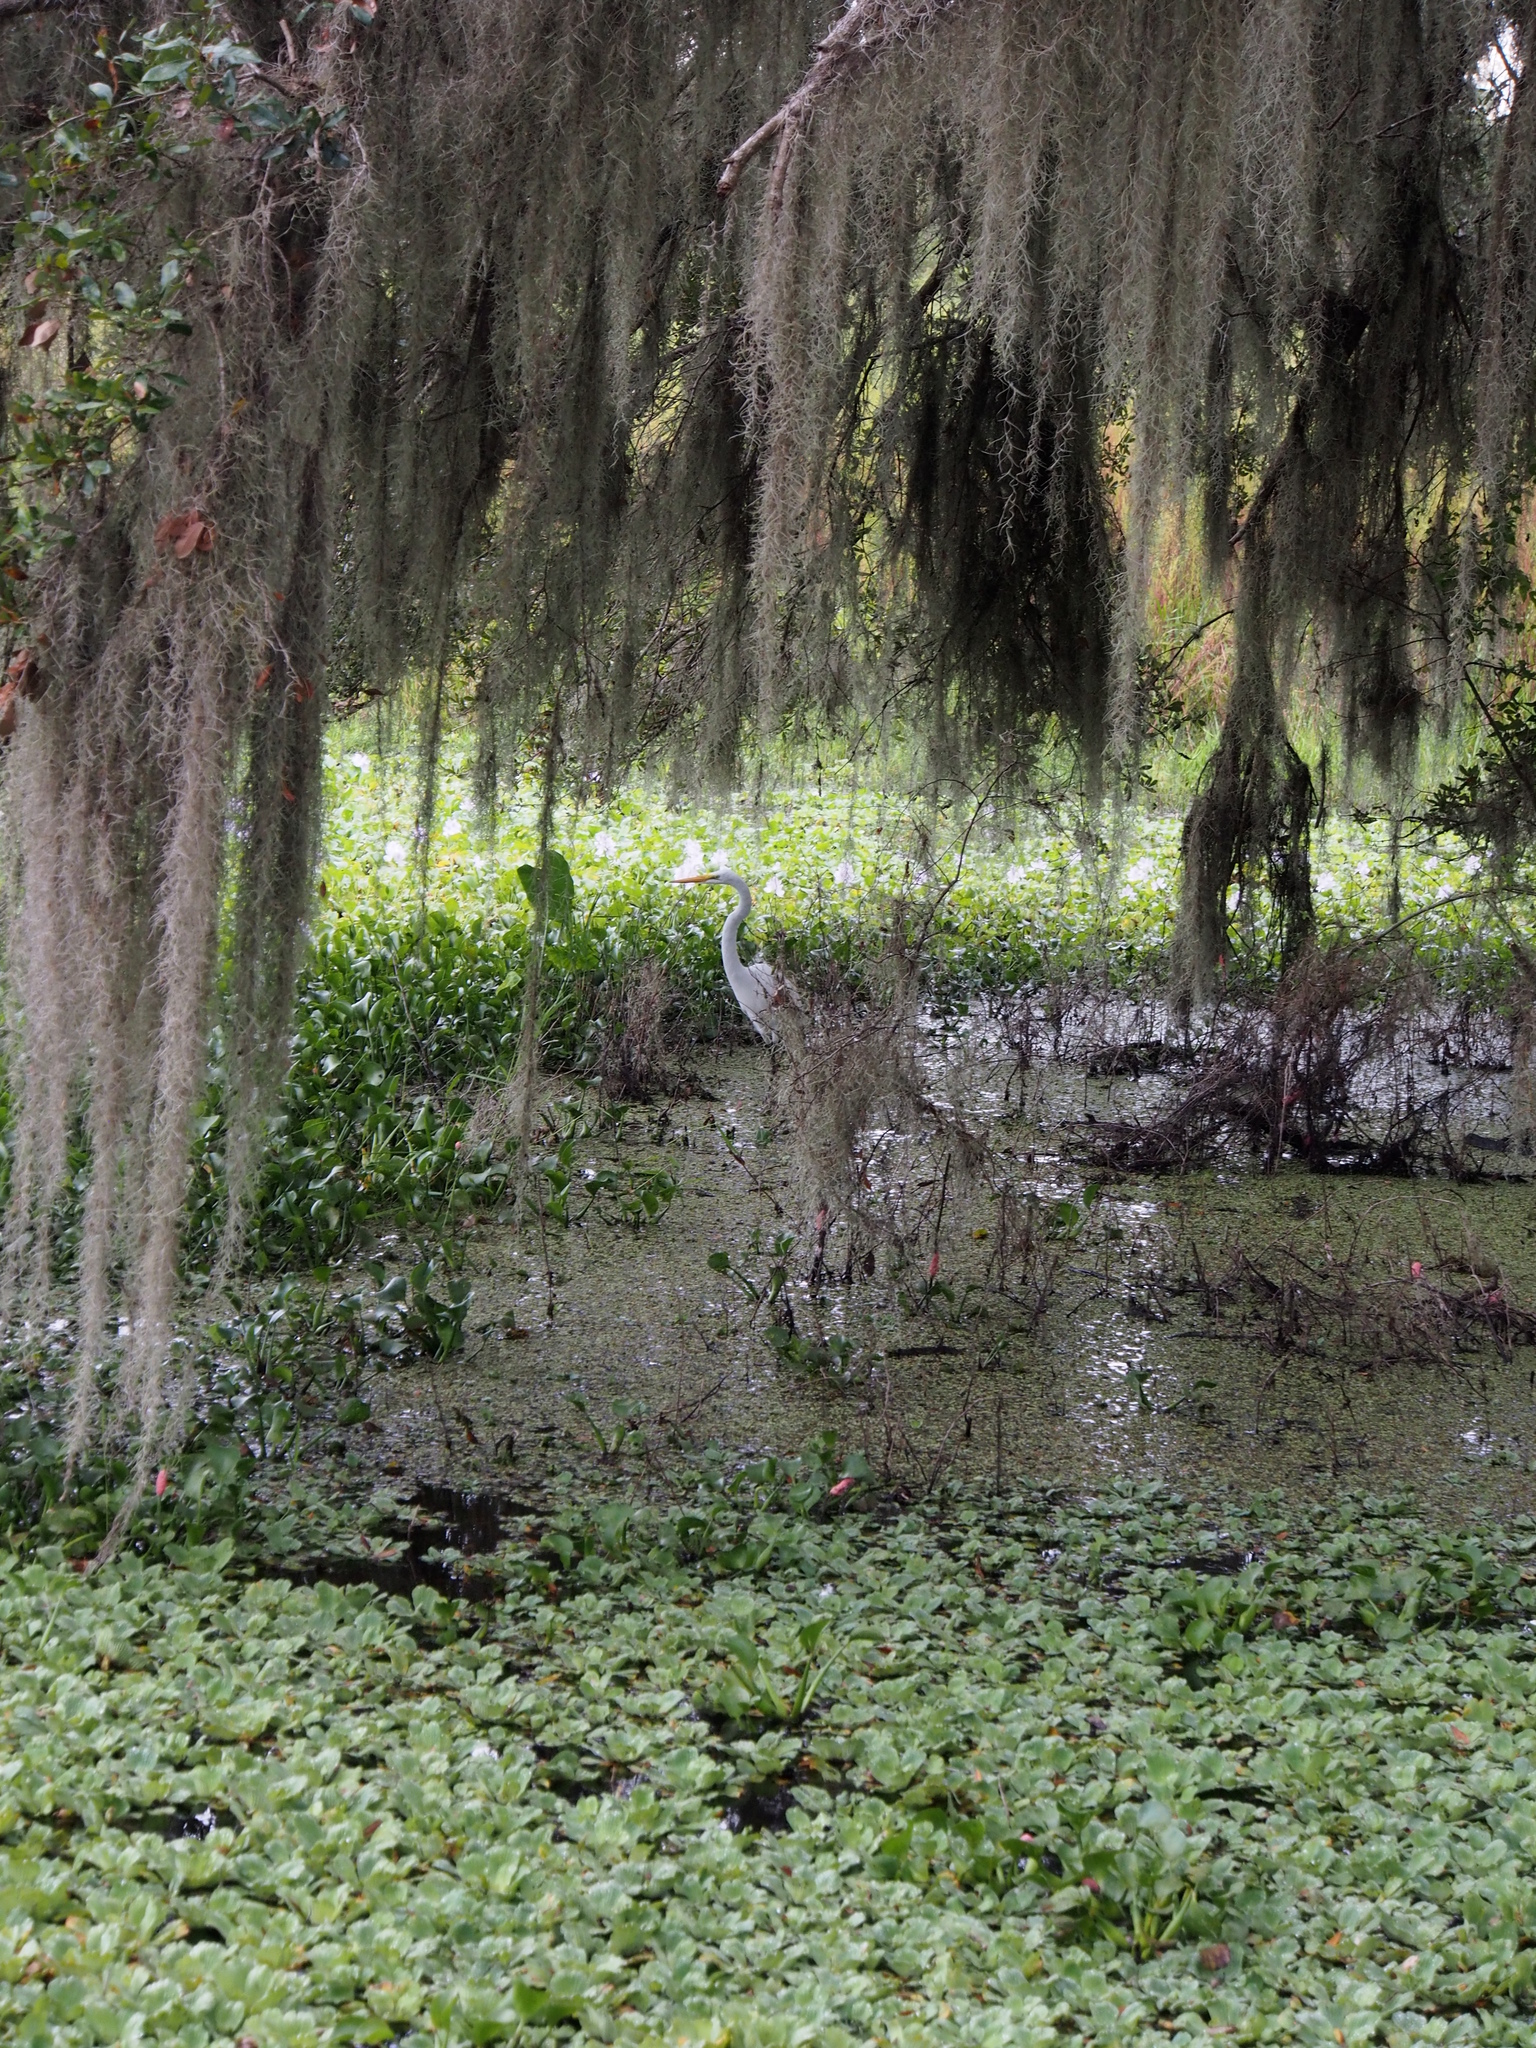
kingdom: Animalia
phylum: Chordata
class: Aves
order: Pelecaniformes
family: Ardeidae
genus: Ardea
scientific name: Ardea alba
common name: Great egret
